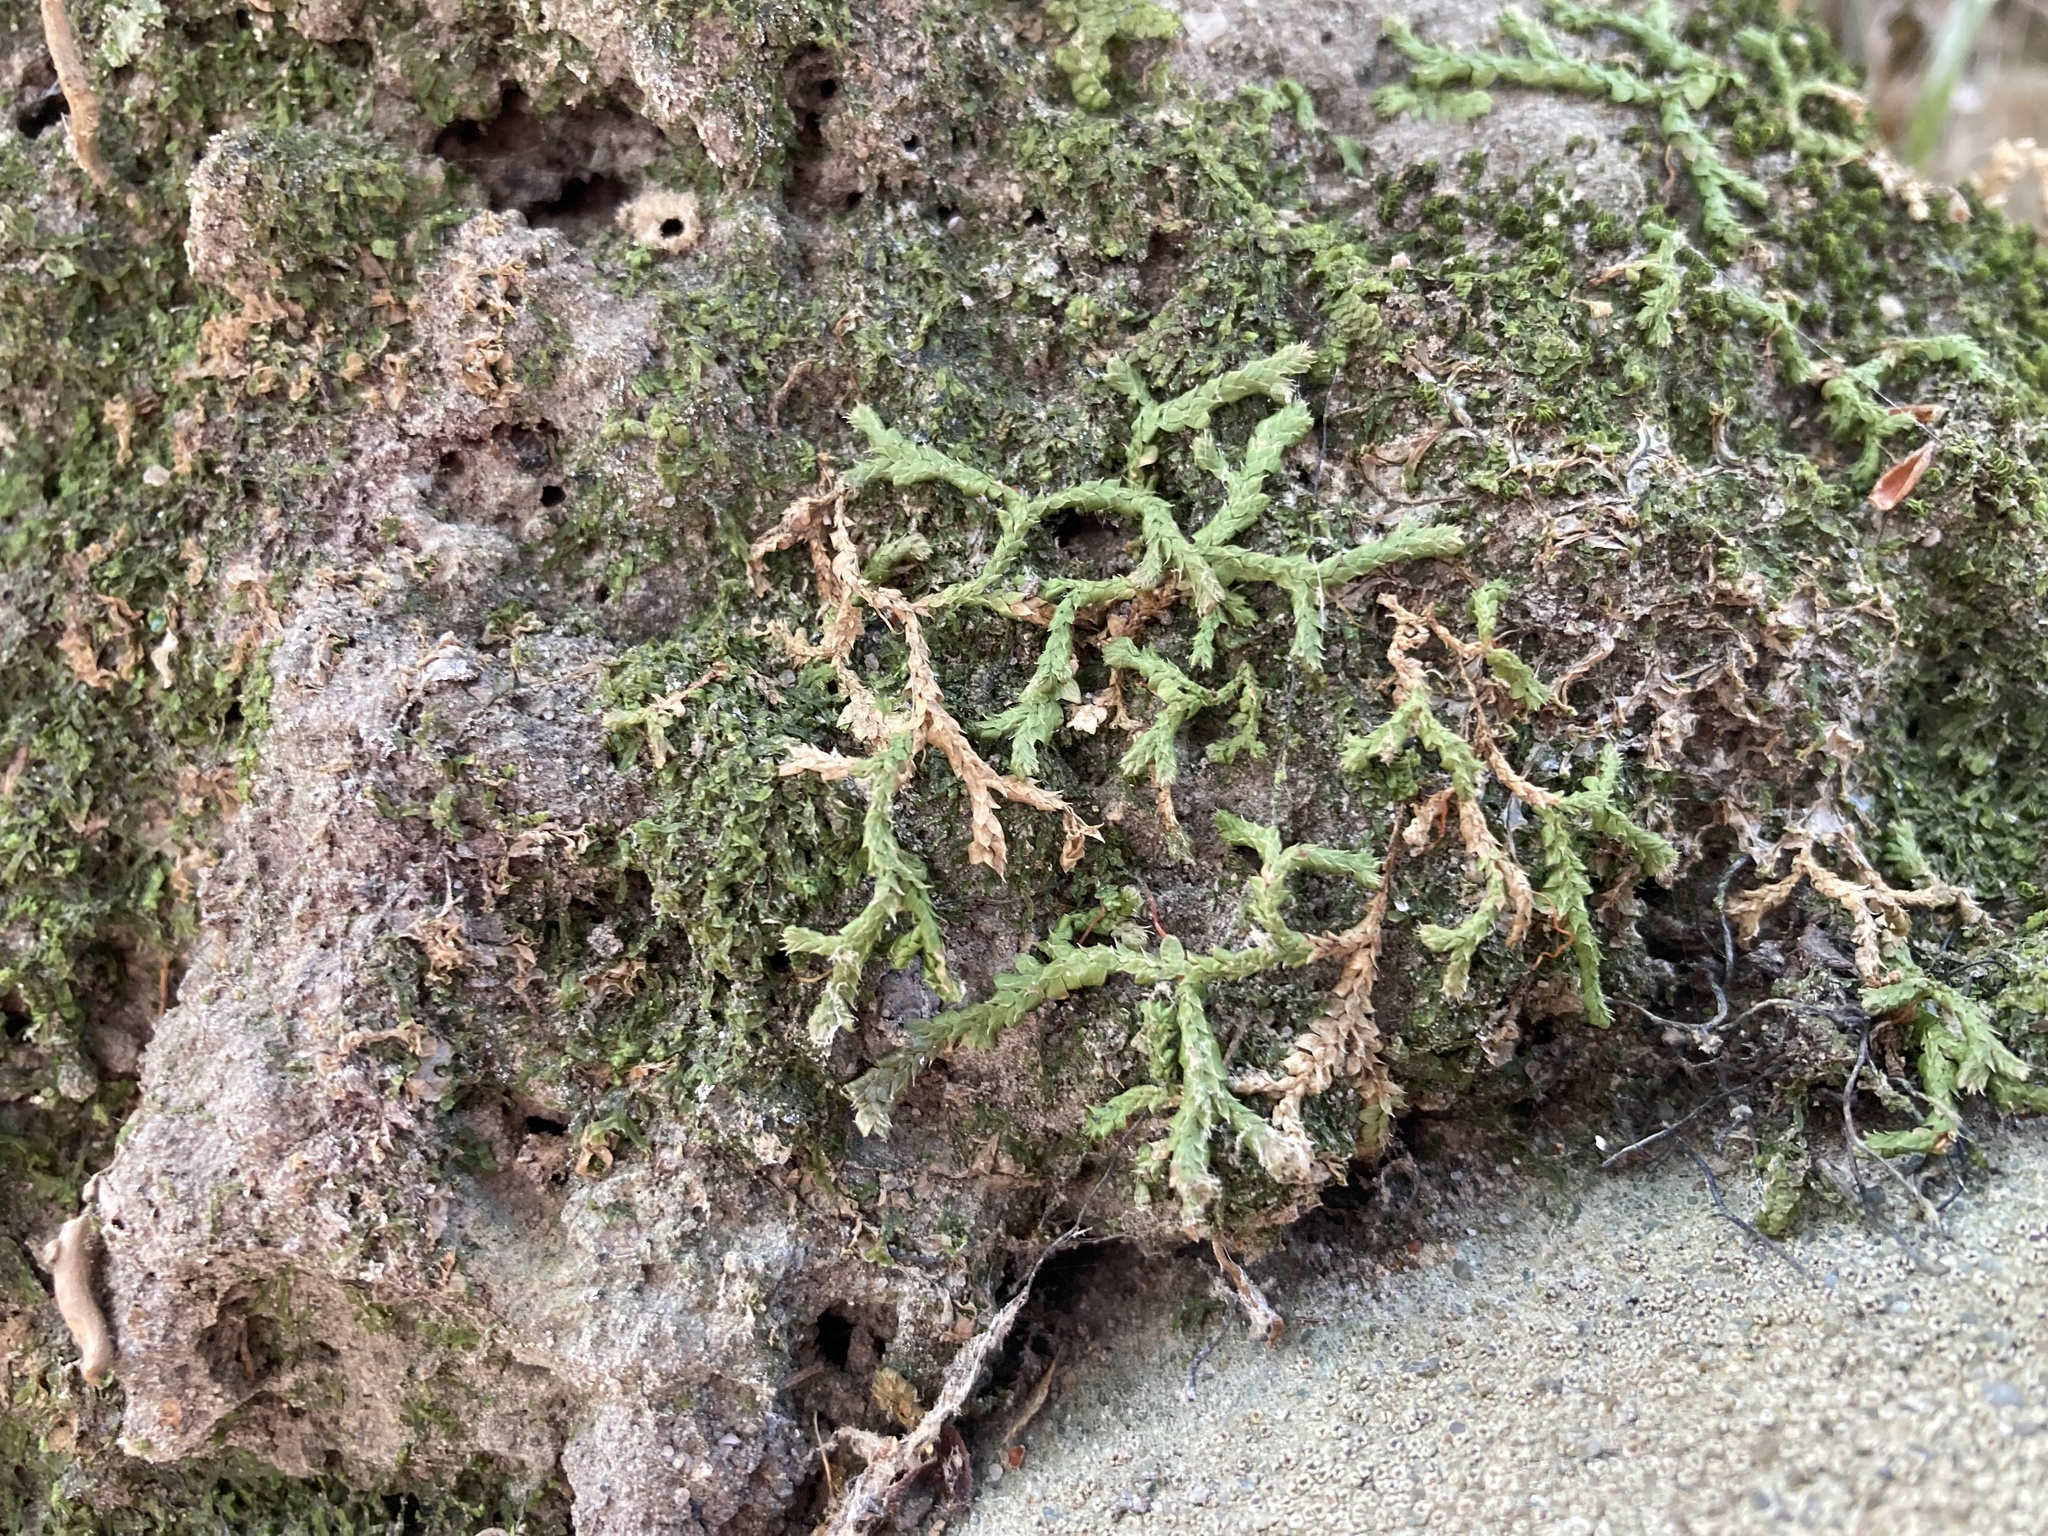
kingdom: Plantae
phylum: Tracheophyta
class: Lycopodiopsida
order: Selaginellales
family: Selaginellaceae
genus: Selaginella
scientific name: Selaginella denticulata
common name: Toothed-leaved clubmoss
